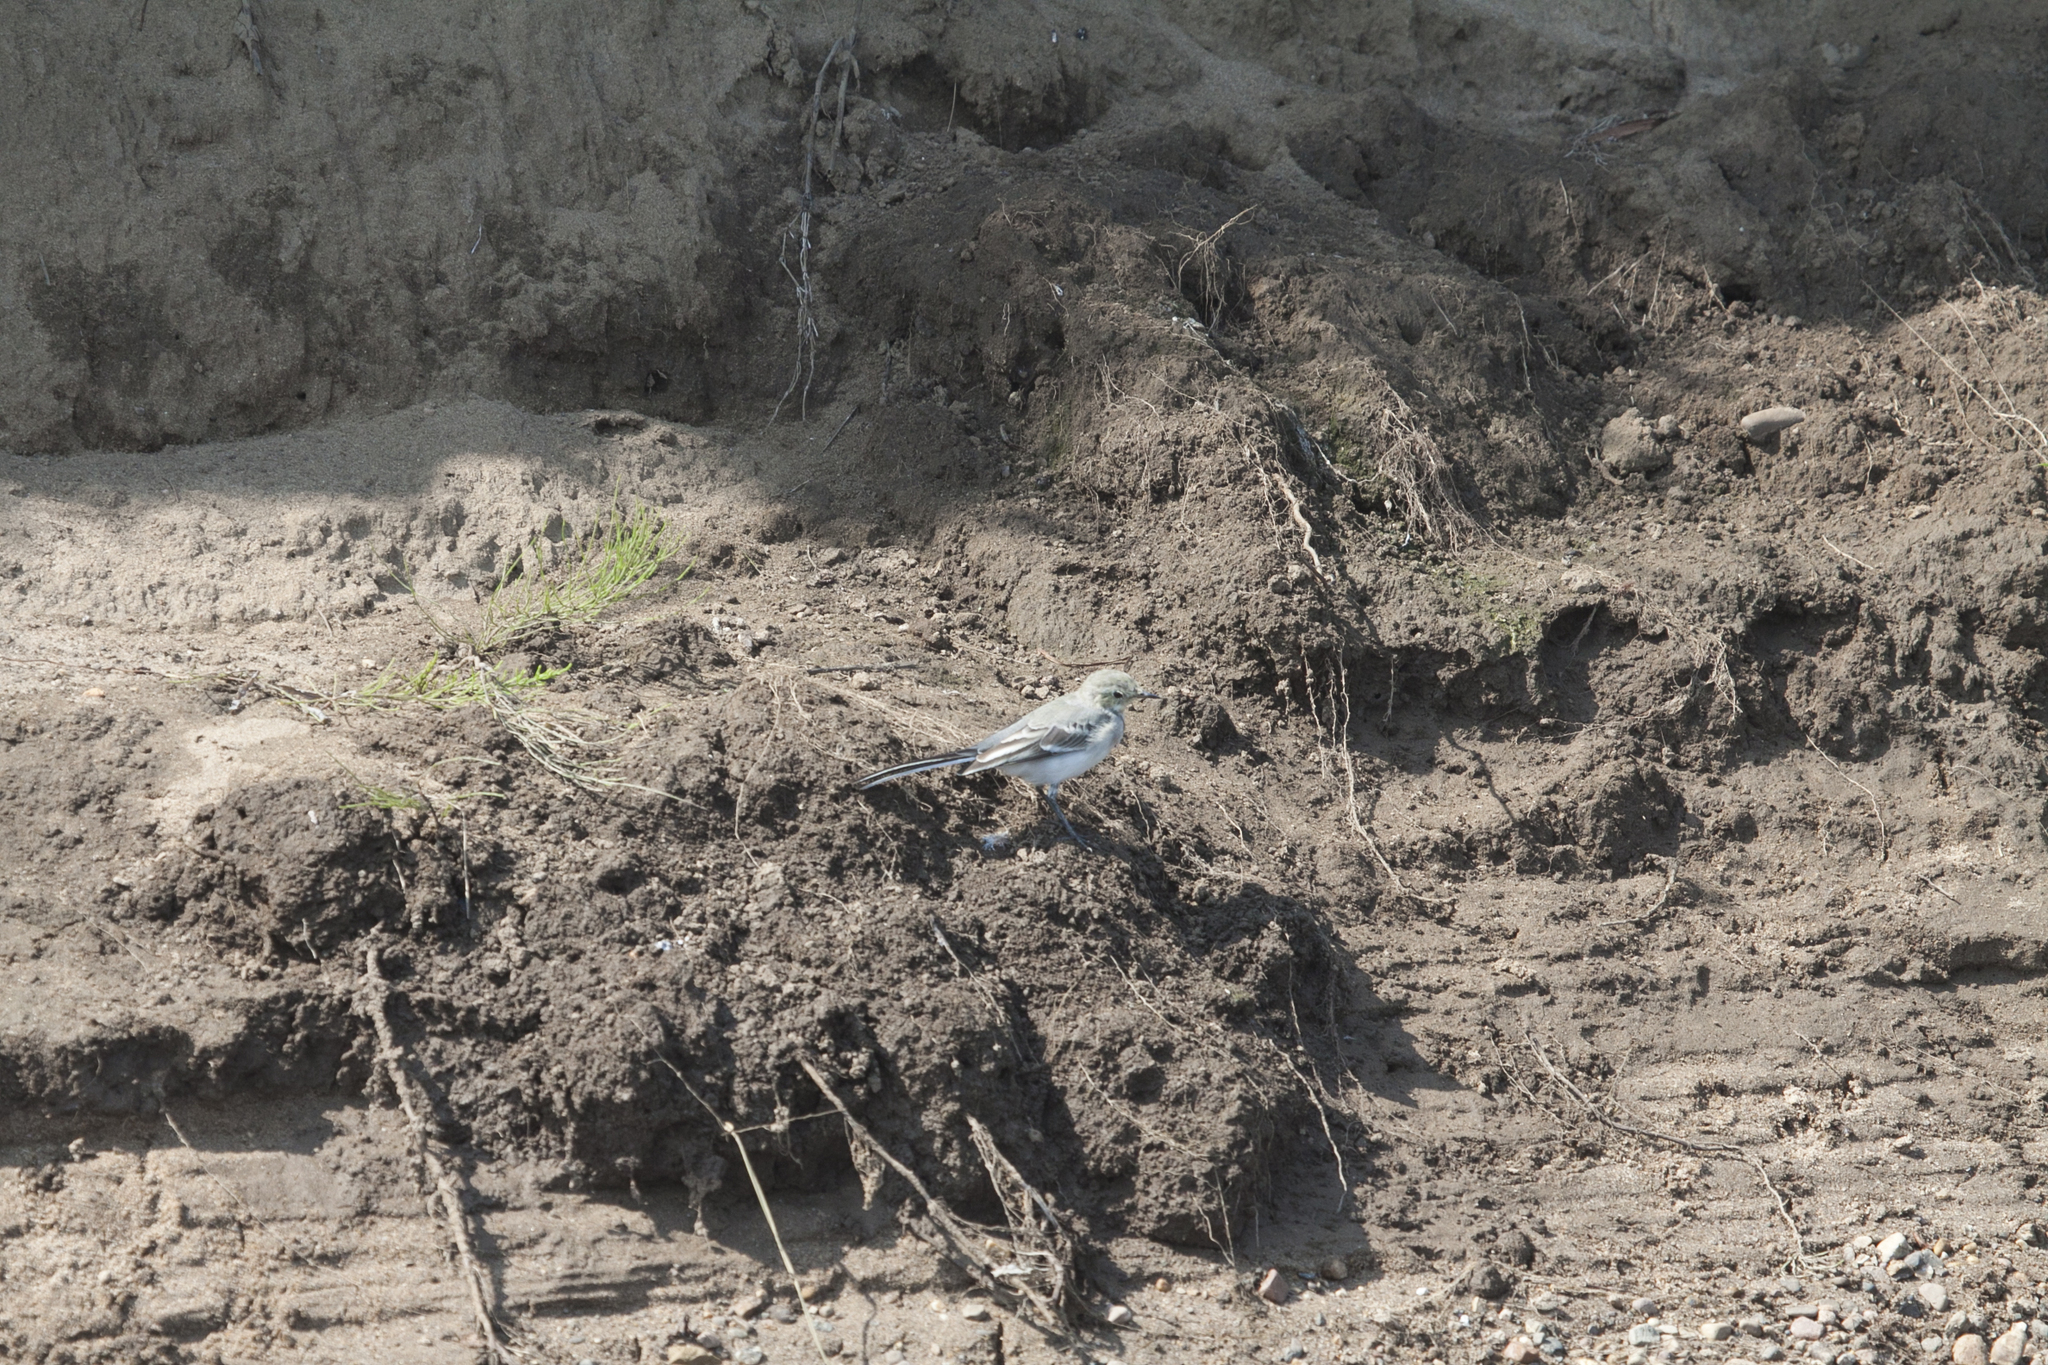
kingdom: Animalia
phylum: Chordata
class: Aves
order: Passeriformes
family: Motacillidae
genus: Motacilla
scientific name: Motacilla alba
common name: White wagtail
